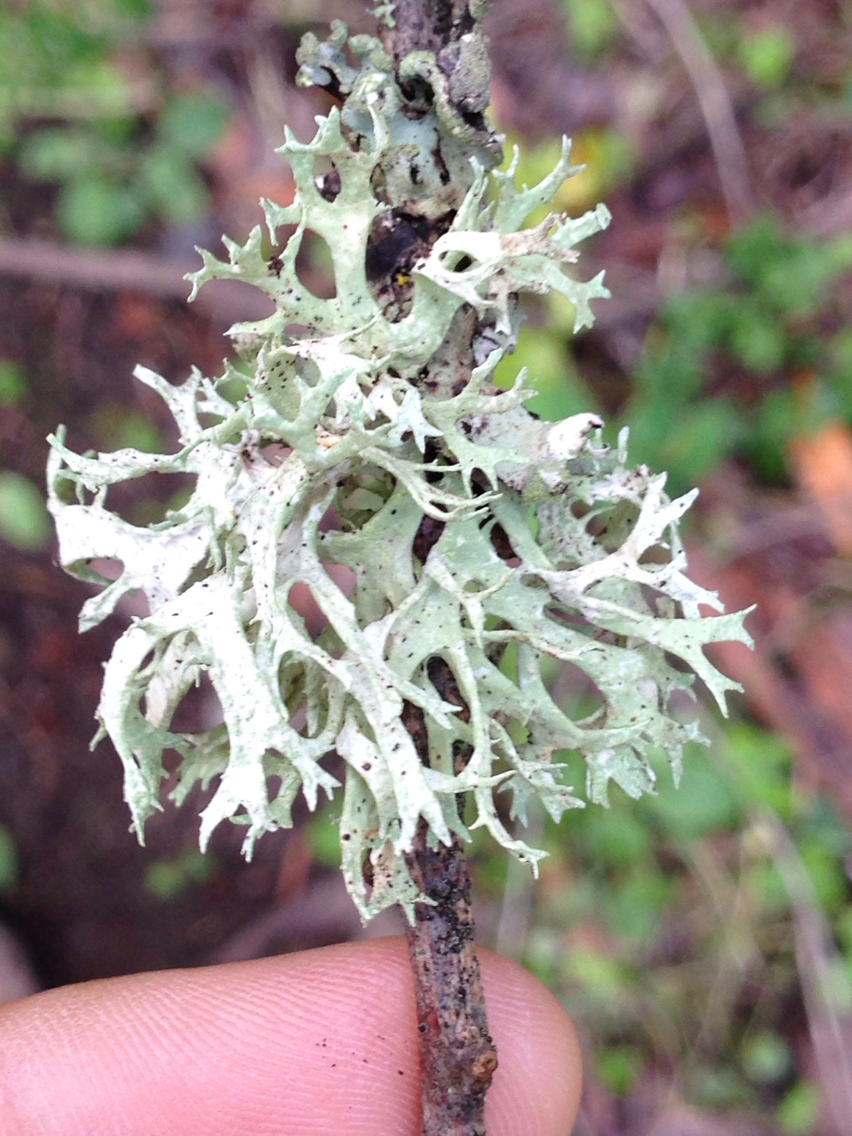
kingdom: Fungi
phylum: Ascomycota
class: Lecanoromycetes
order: Lecanorales
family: Parmeliaceae
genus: Evernia
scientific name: Evernia prunastri
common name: Oak moss
